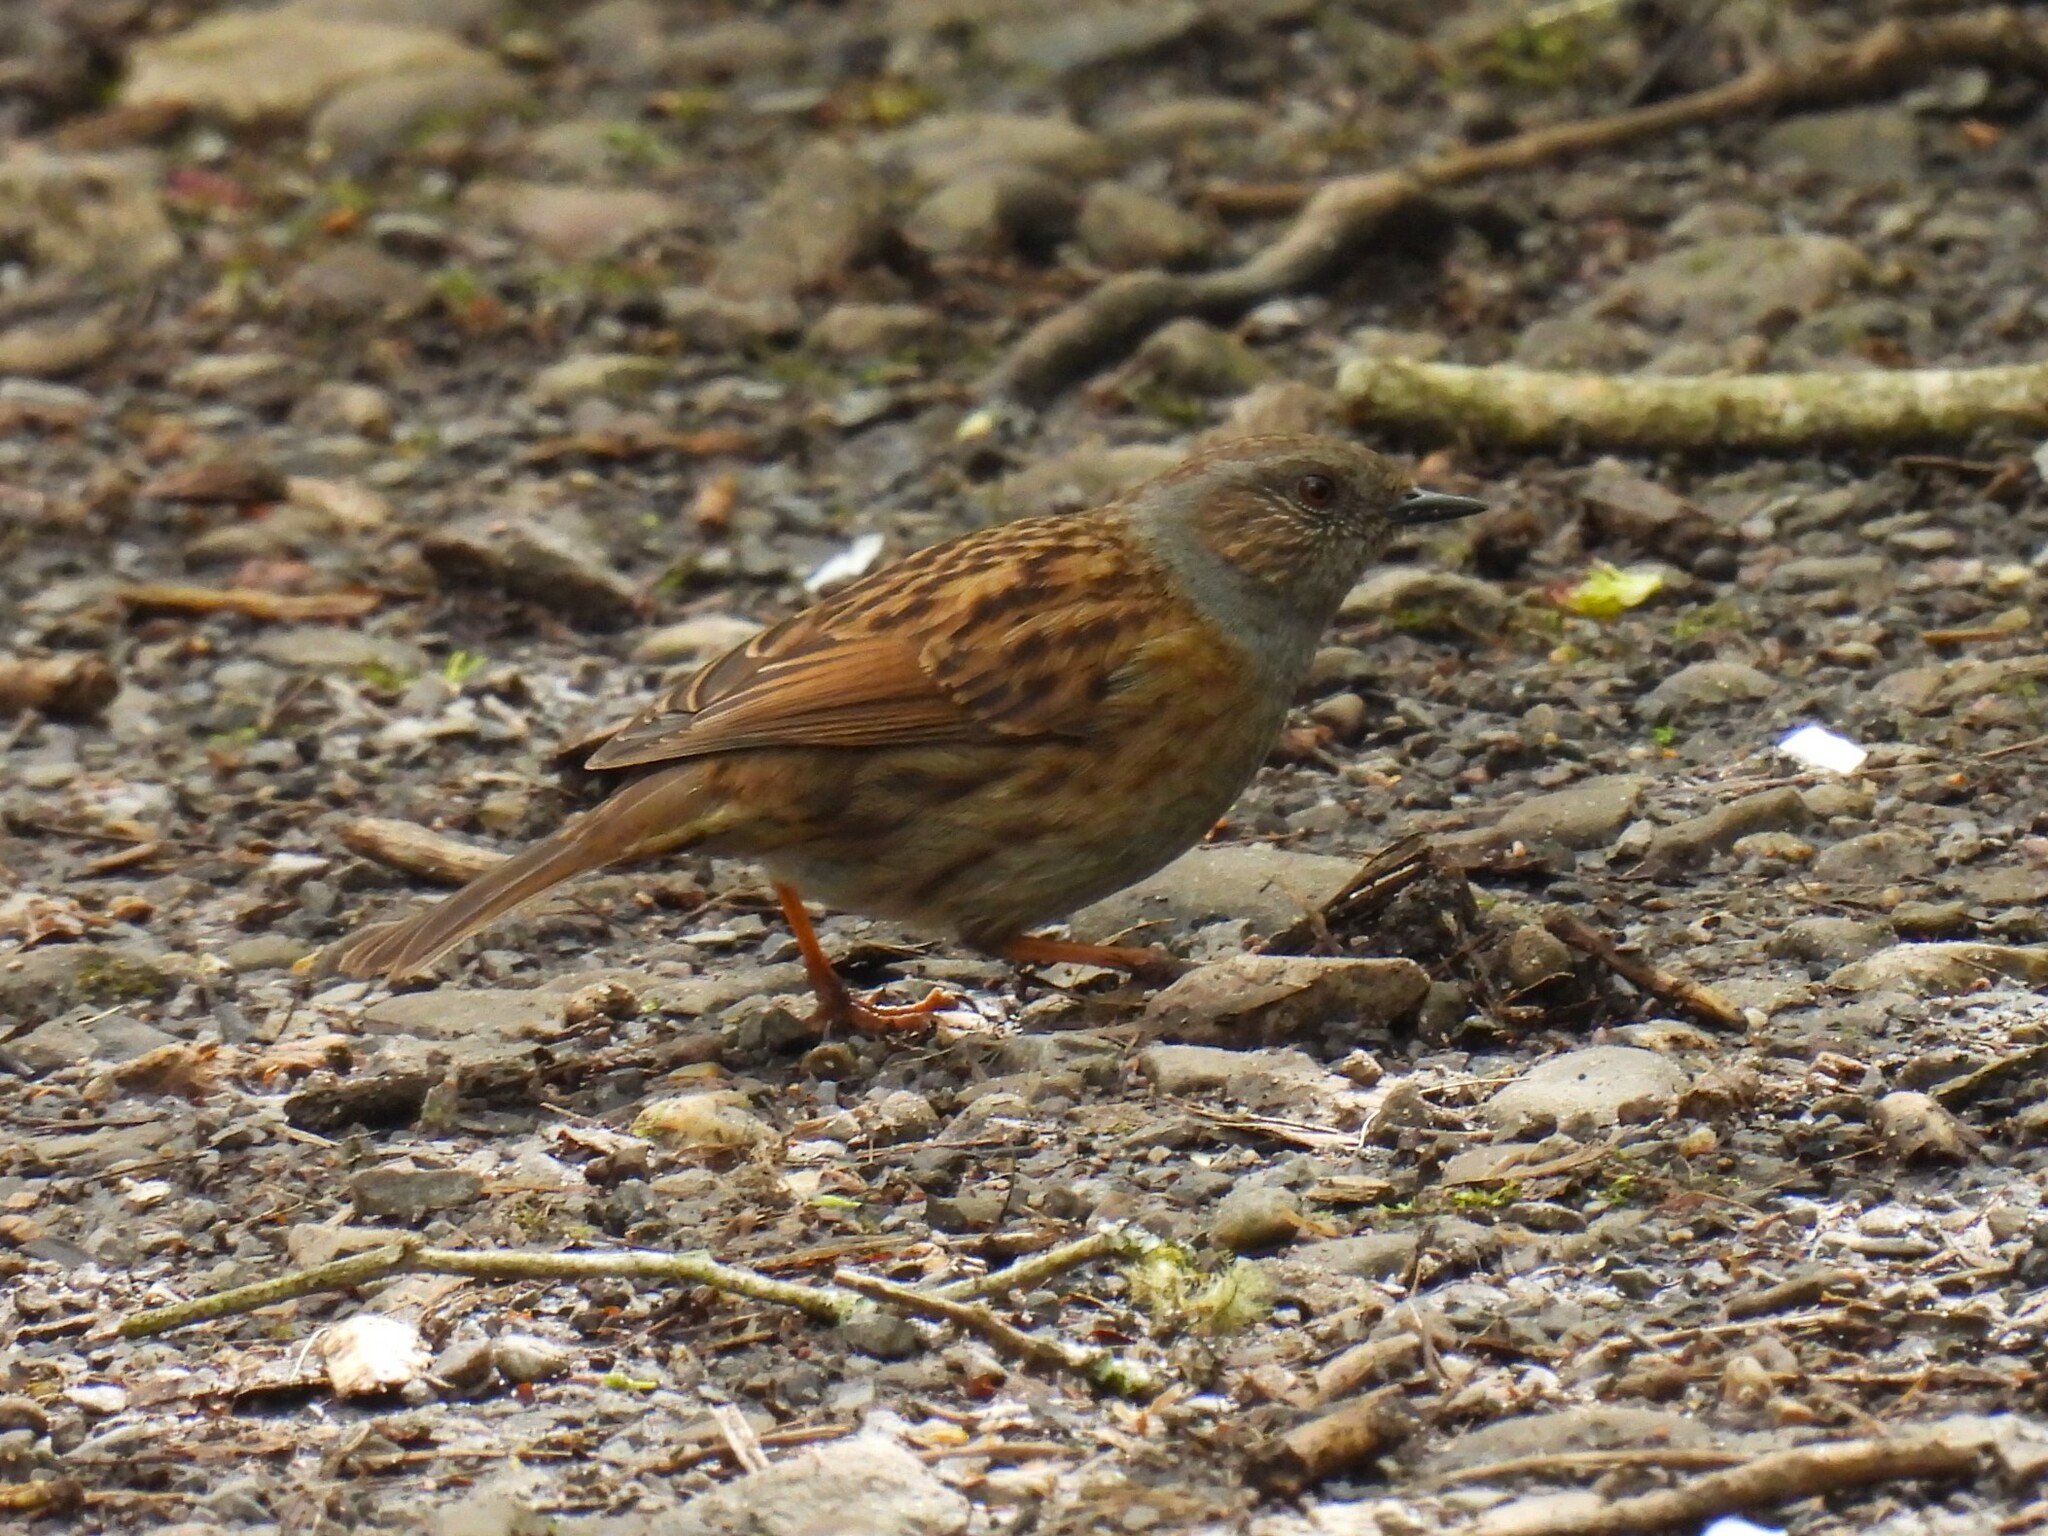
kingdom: Animalia
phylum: Chordata
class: Aves
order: Passeriformes
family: Prunellidae
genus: Prunella
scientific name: Prunella modularis
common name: Dunnock
